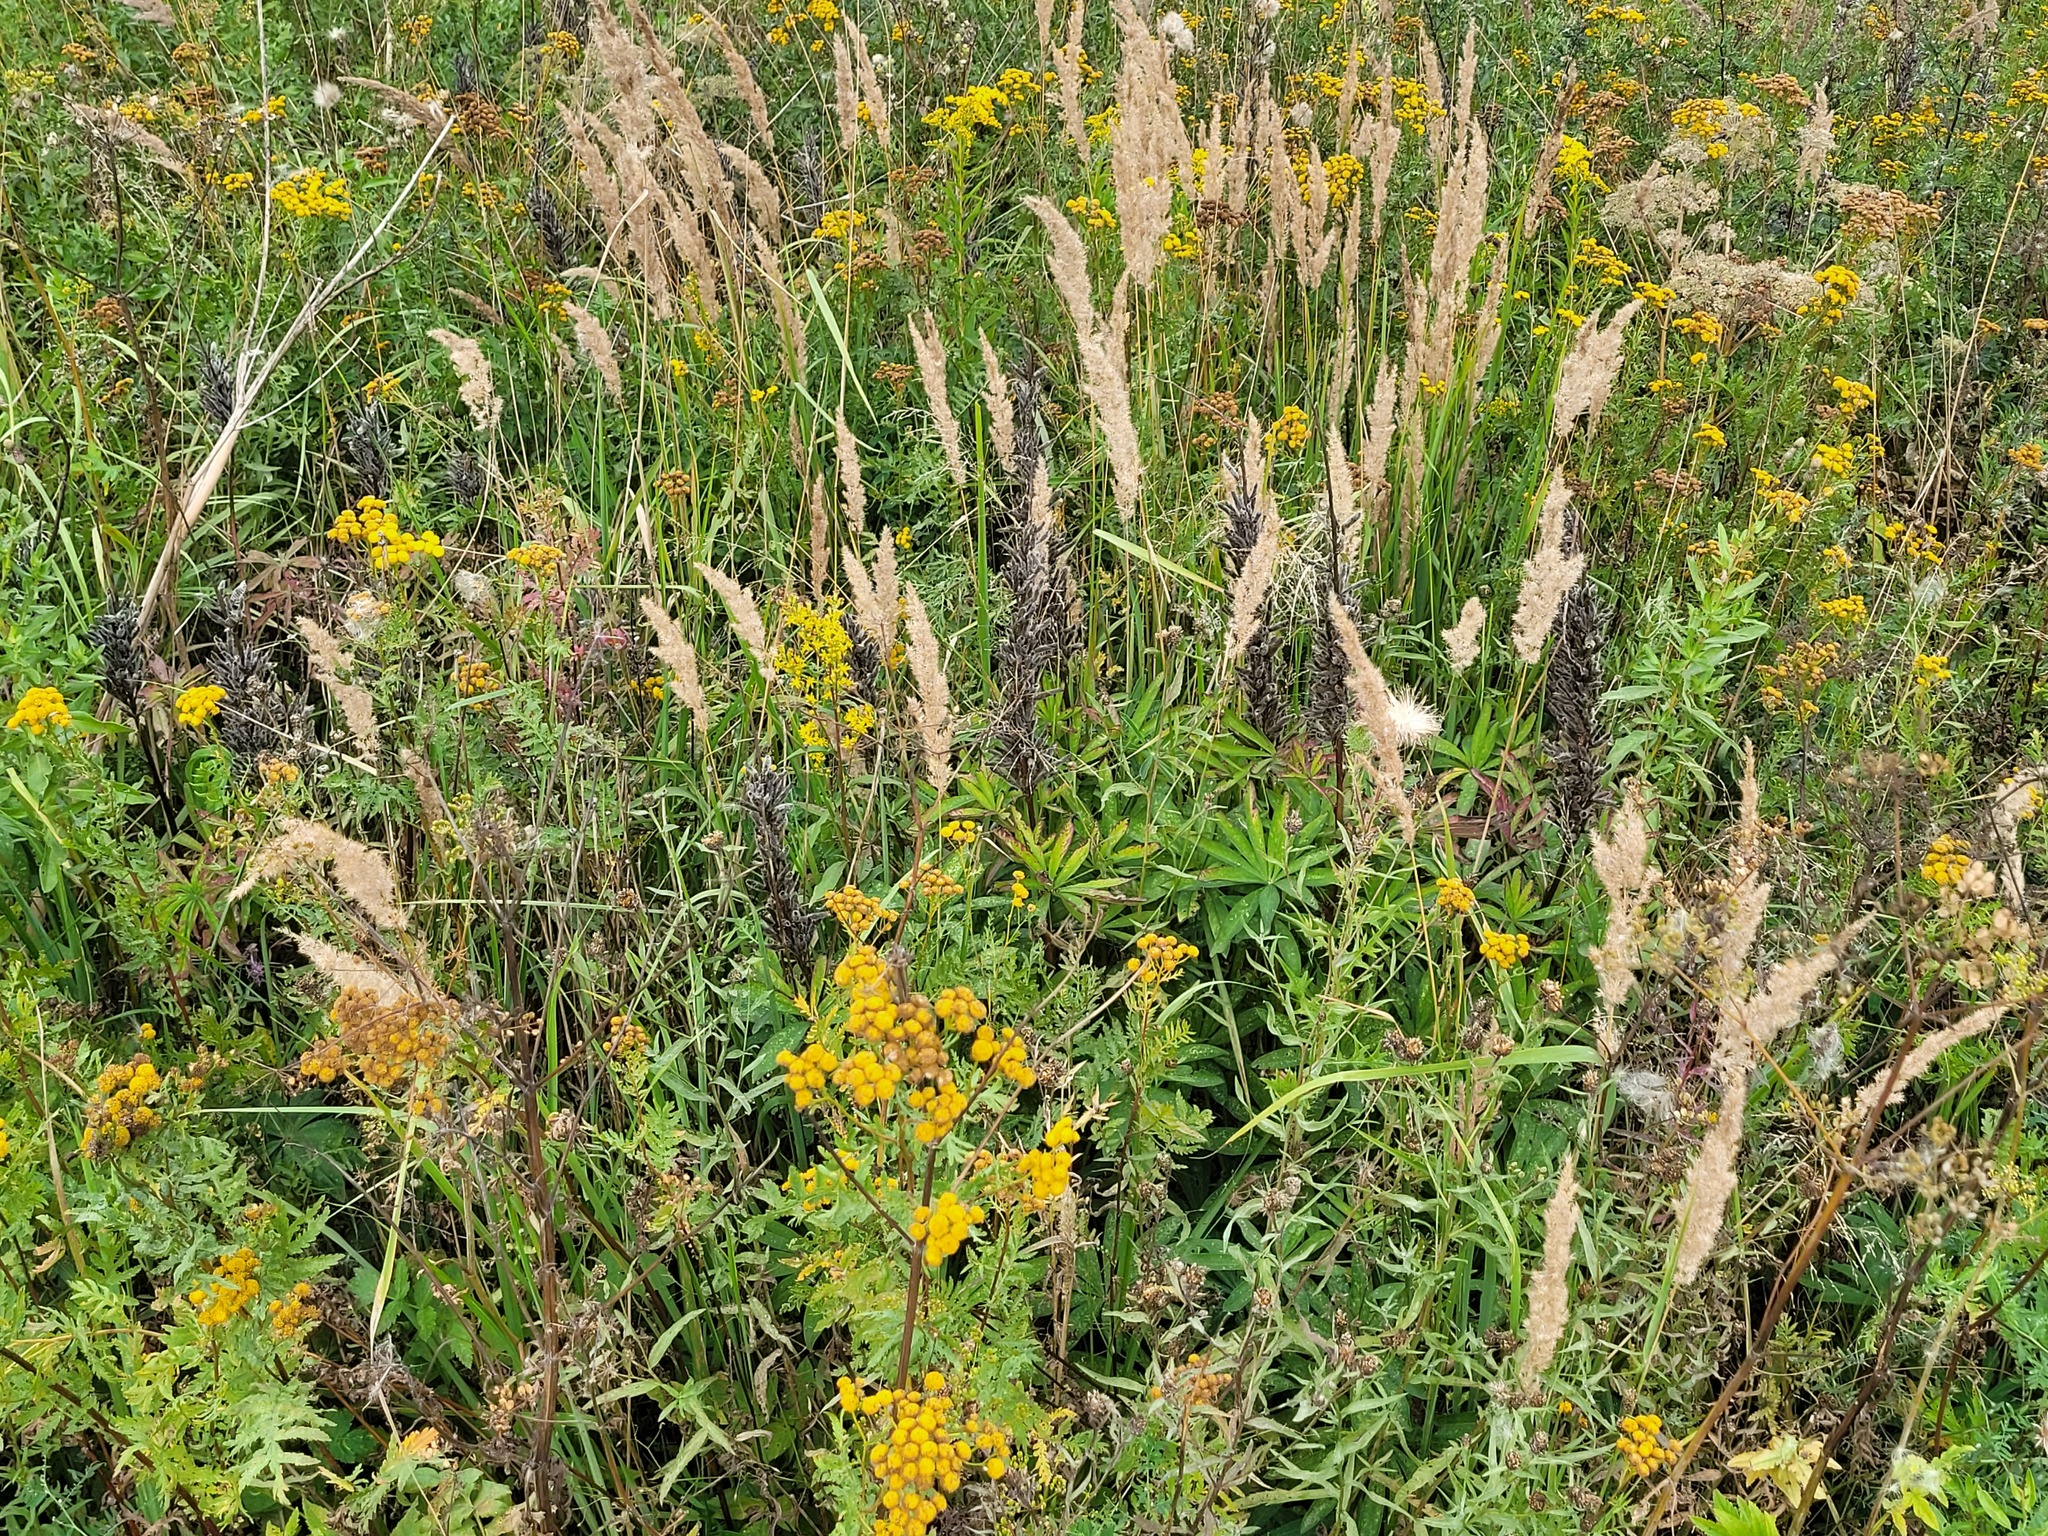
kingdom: Plantae
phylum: Tracheophyta
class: Magnoliopsida
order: Fabales
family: Fabaceae
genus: Lupinus
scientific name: Lupinus polyphyllus
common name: Garden lupin
